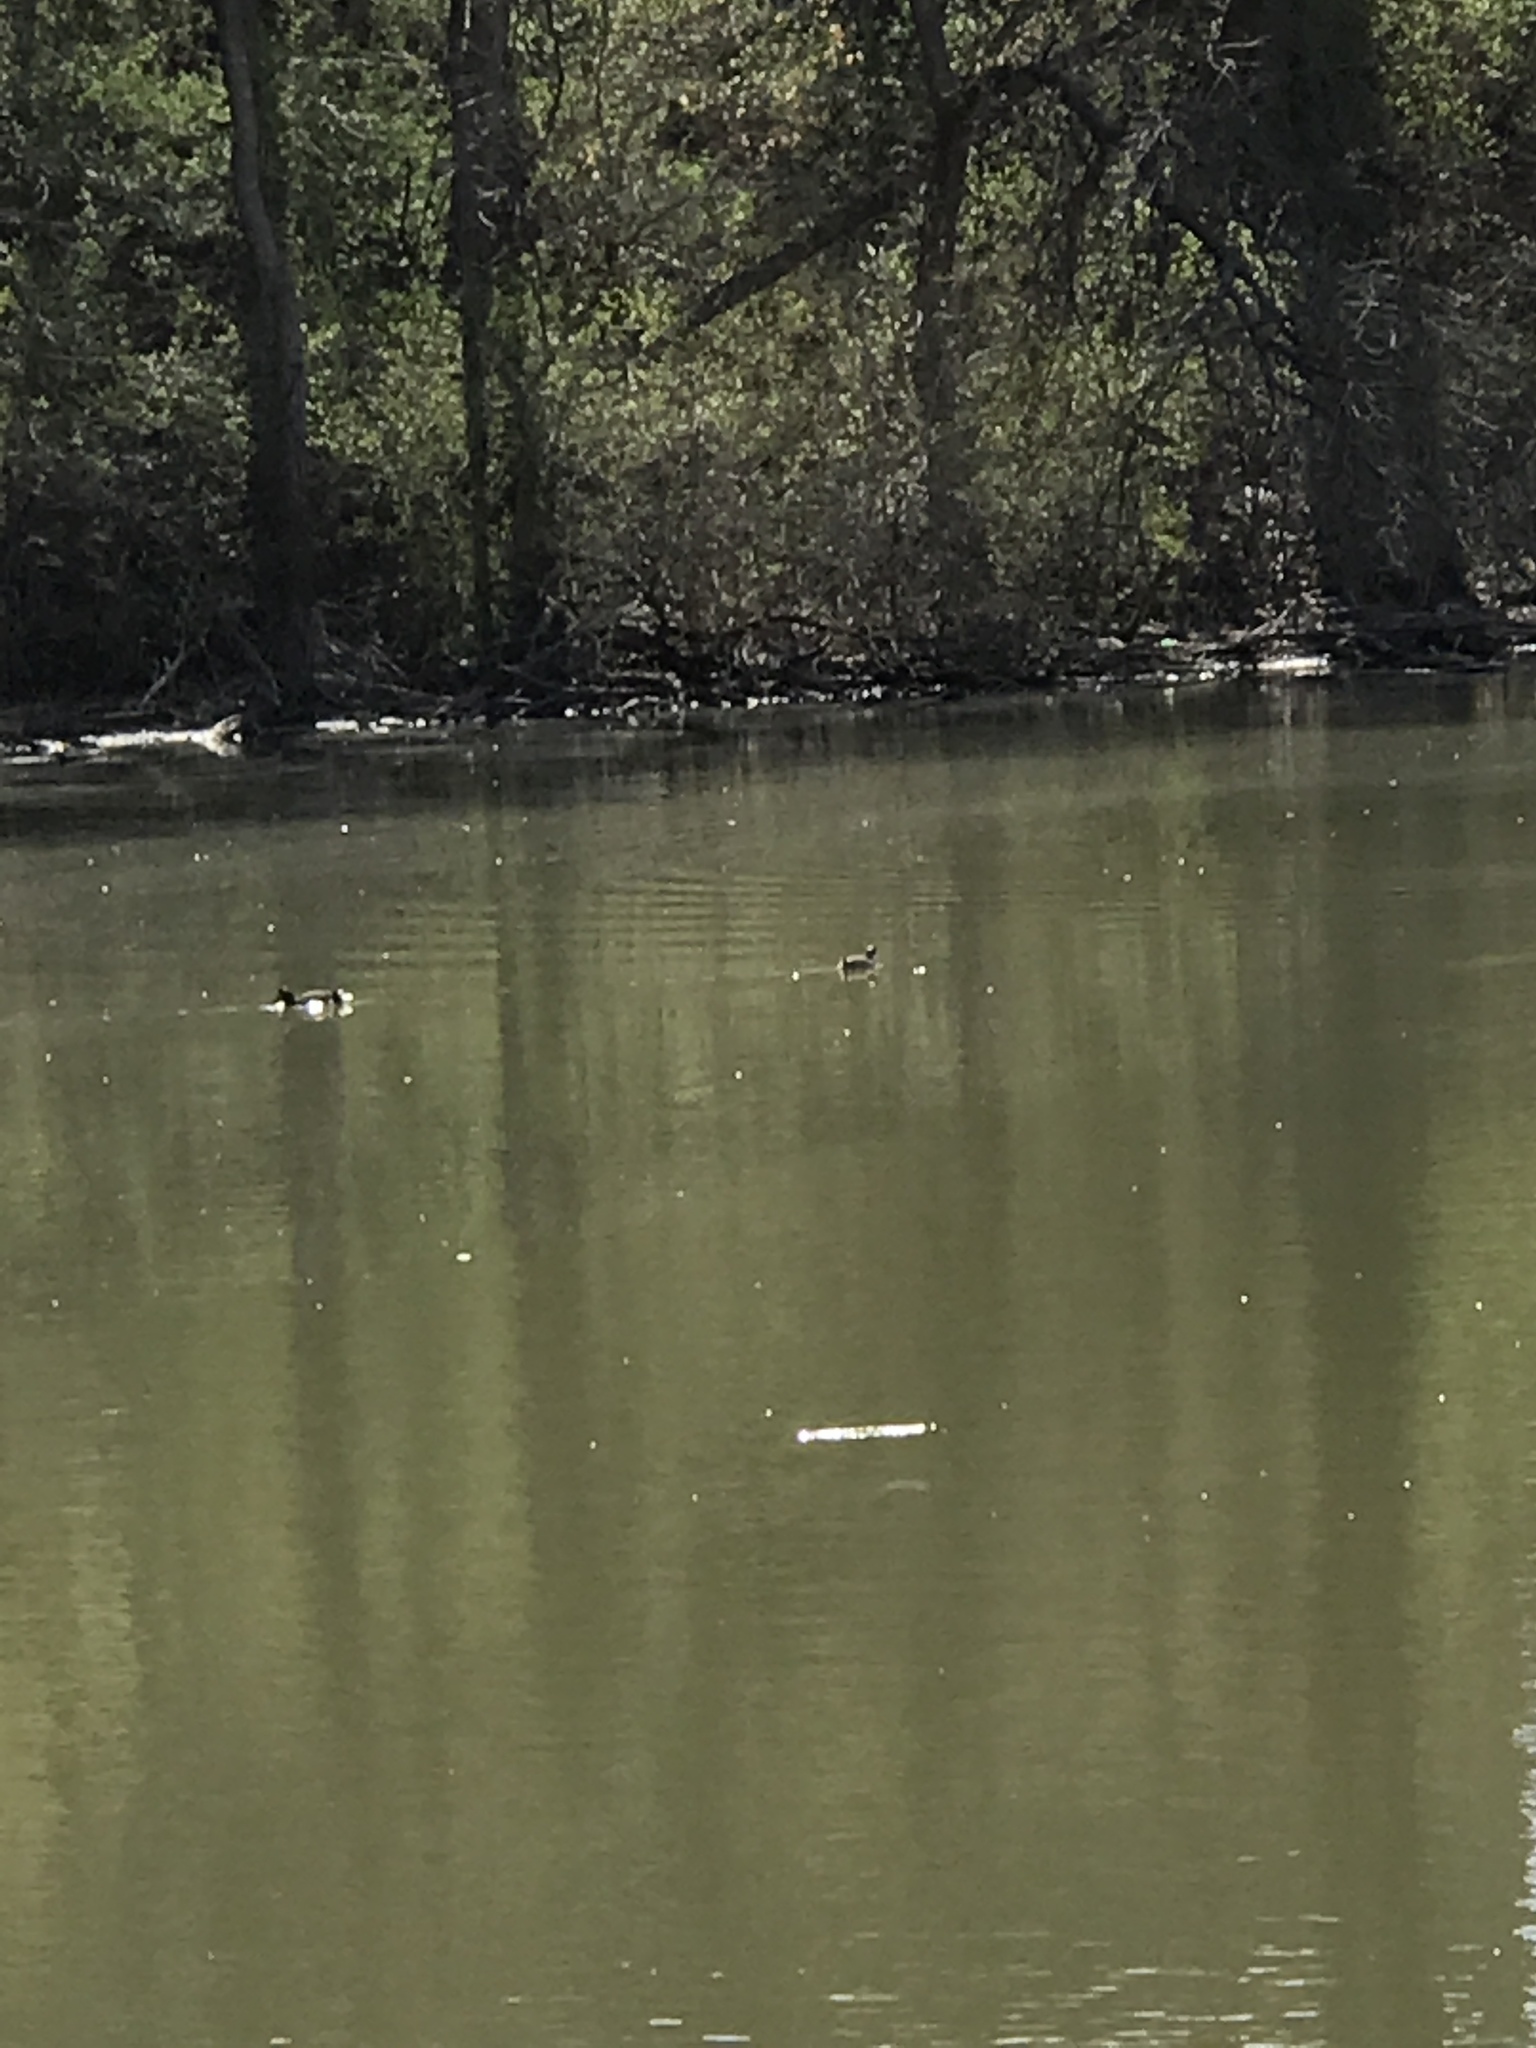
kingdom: Animalia
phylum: Chordata
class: Aves
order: Anseriformes
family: Anatidae
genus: Spatula
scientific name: Spatula discors
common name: Blue-winged teal
